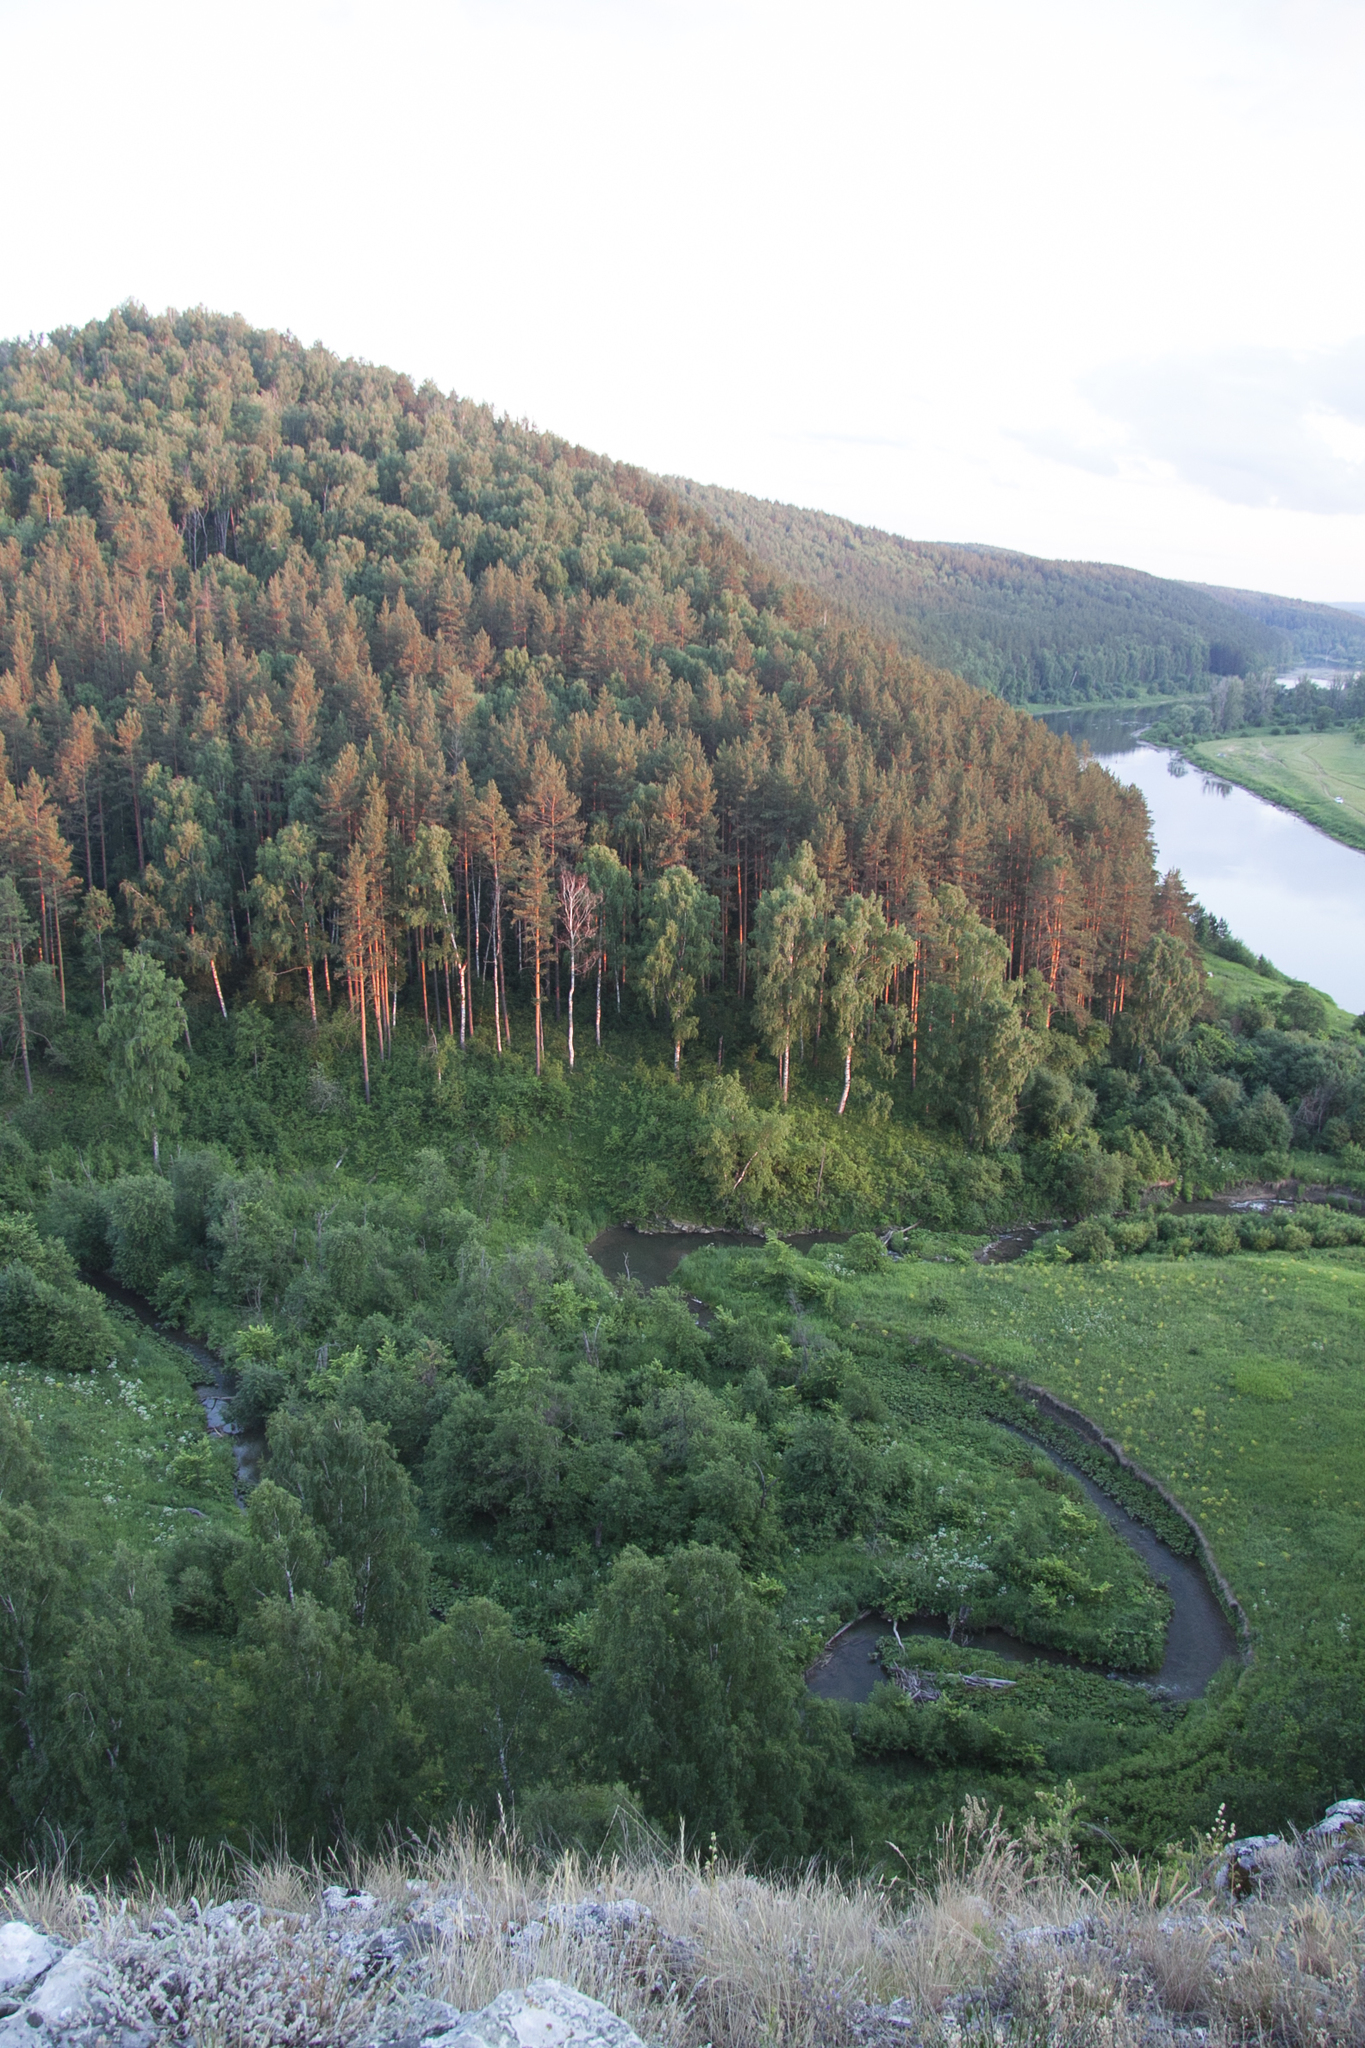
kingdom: Plantae
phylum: Tracheophyta
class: Pinopsida
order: Pinales
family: Pinaceae
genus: Pinus
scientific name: Pinus sylvestris
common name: Scots pine
